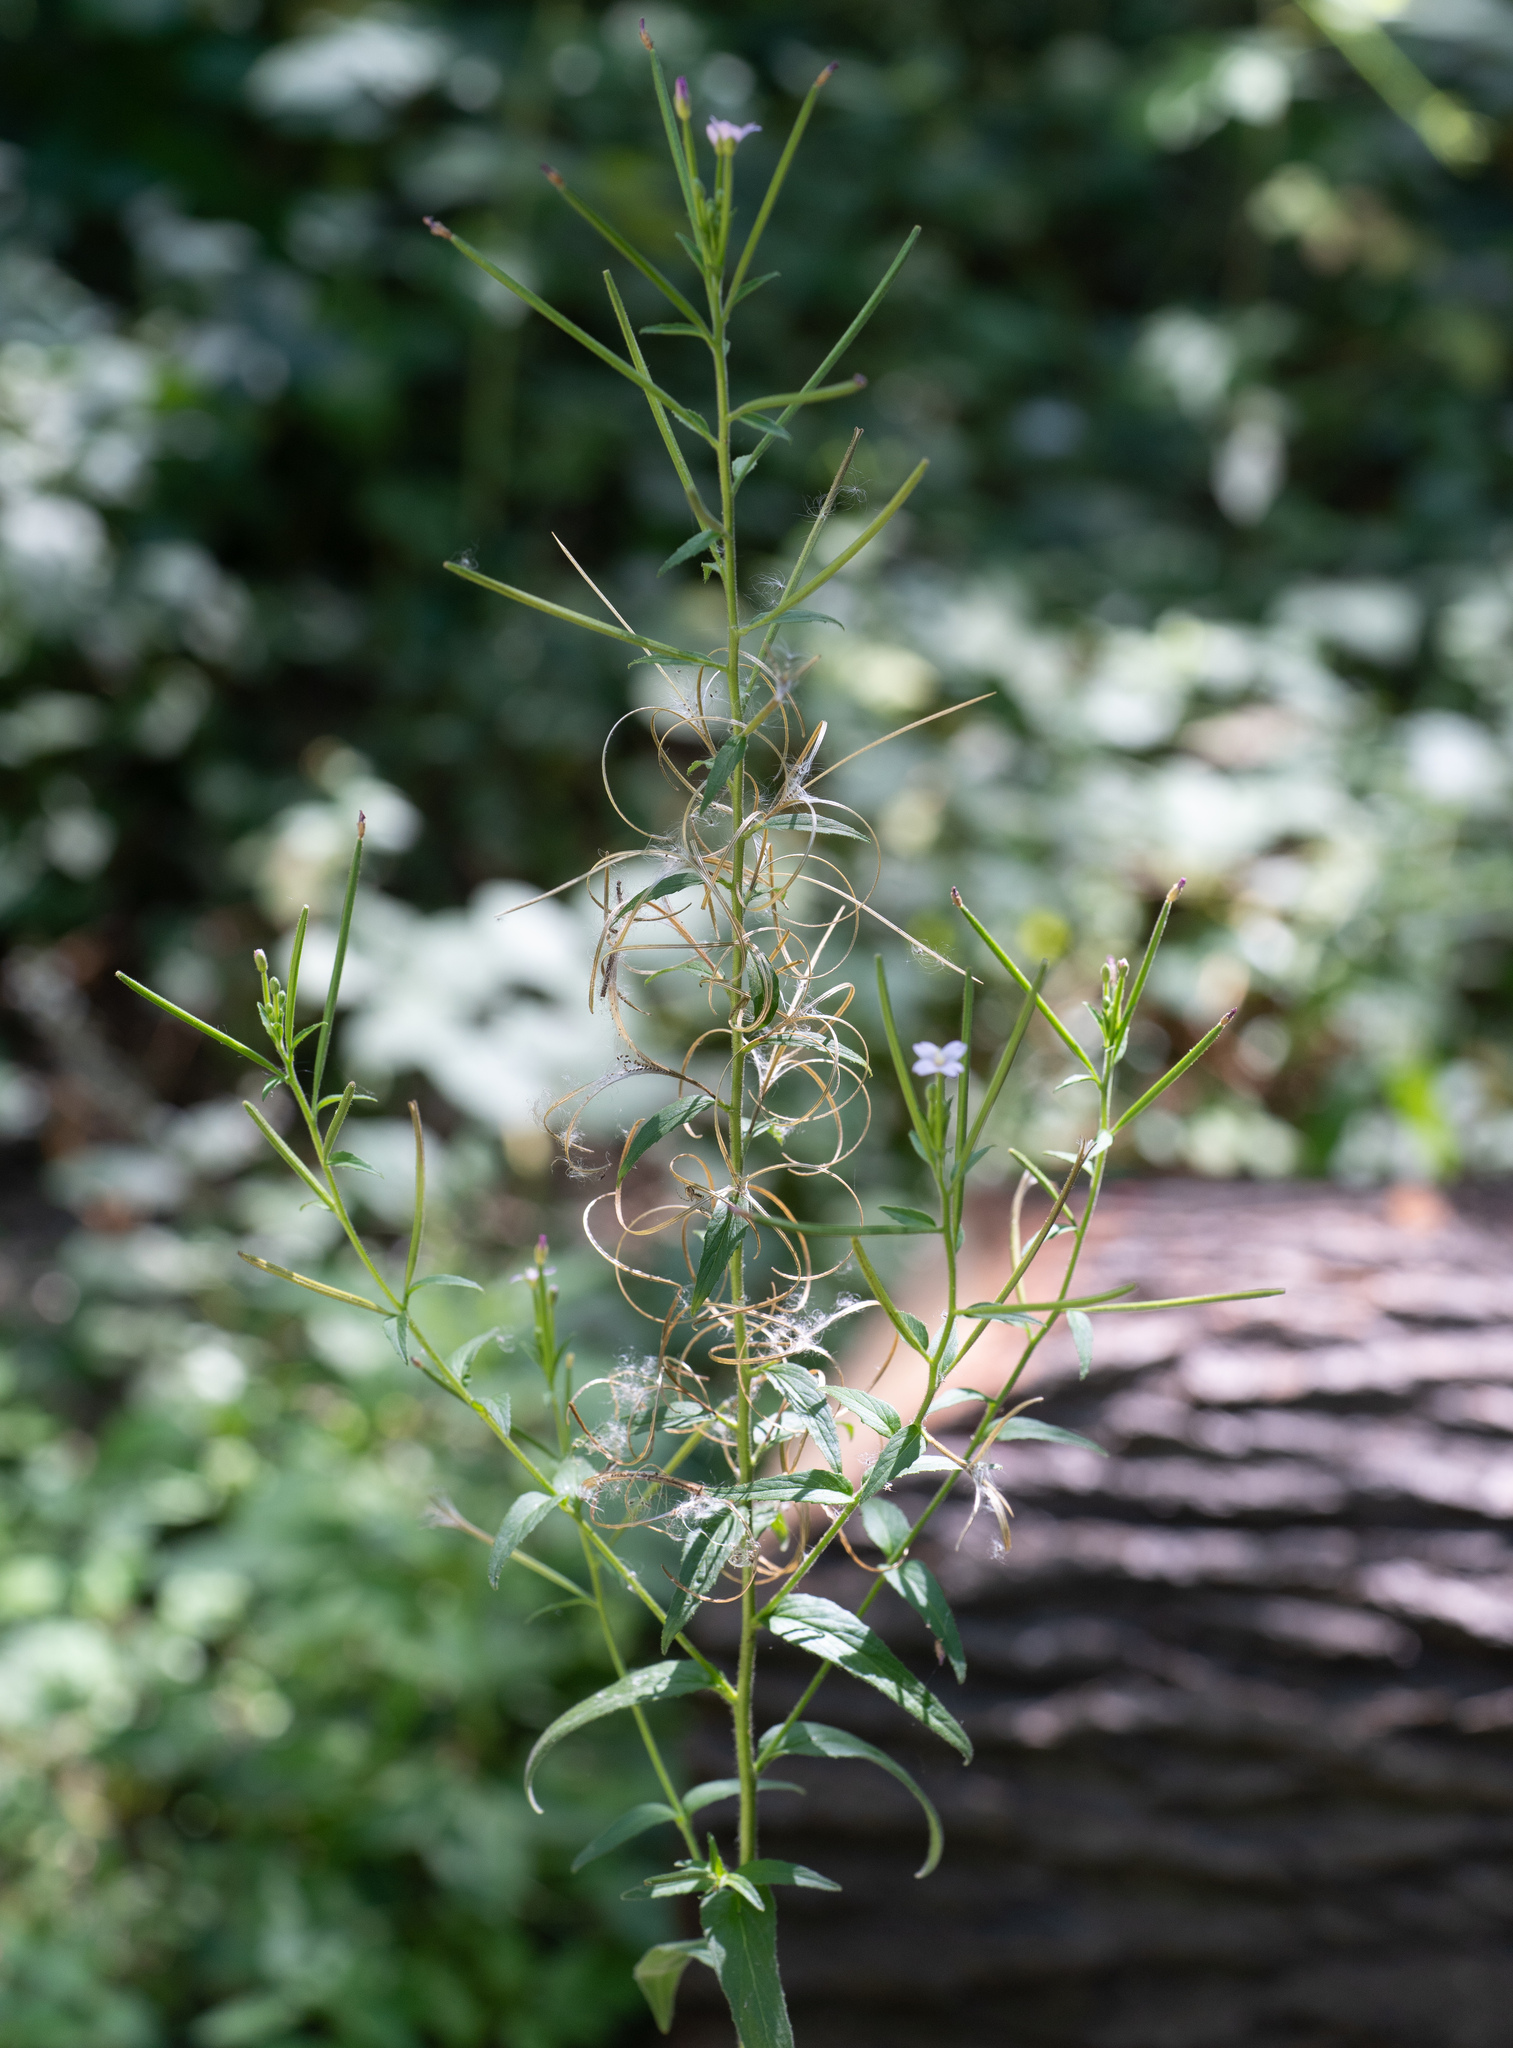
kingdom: Plantae
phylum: Tracheophyta
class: Magnoliopsida
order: Myrtales
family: Onagraceae
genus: Epilobium
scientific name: Epilobium parviflorum
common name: Hoary willowherb
